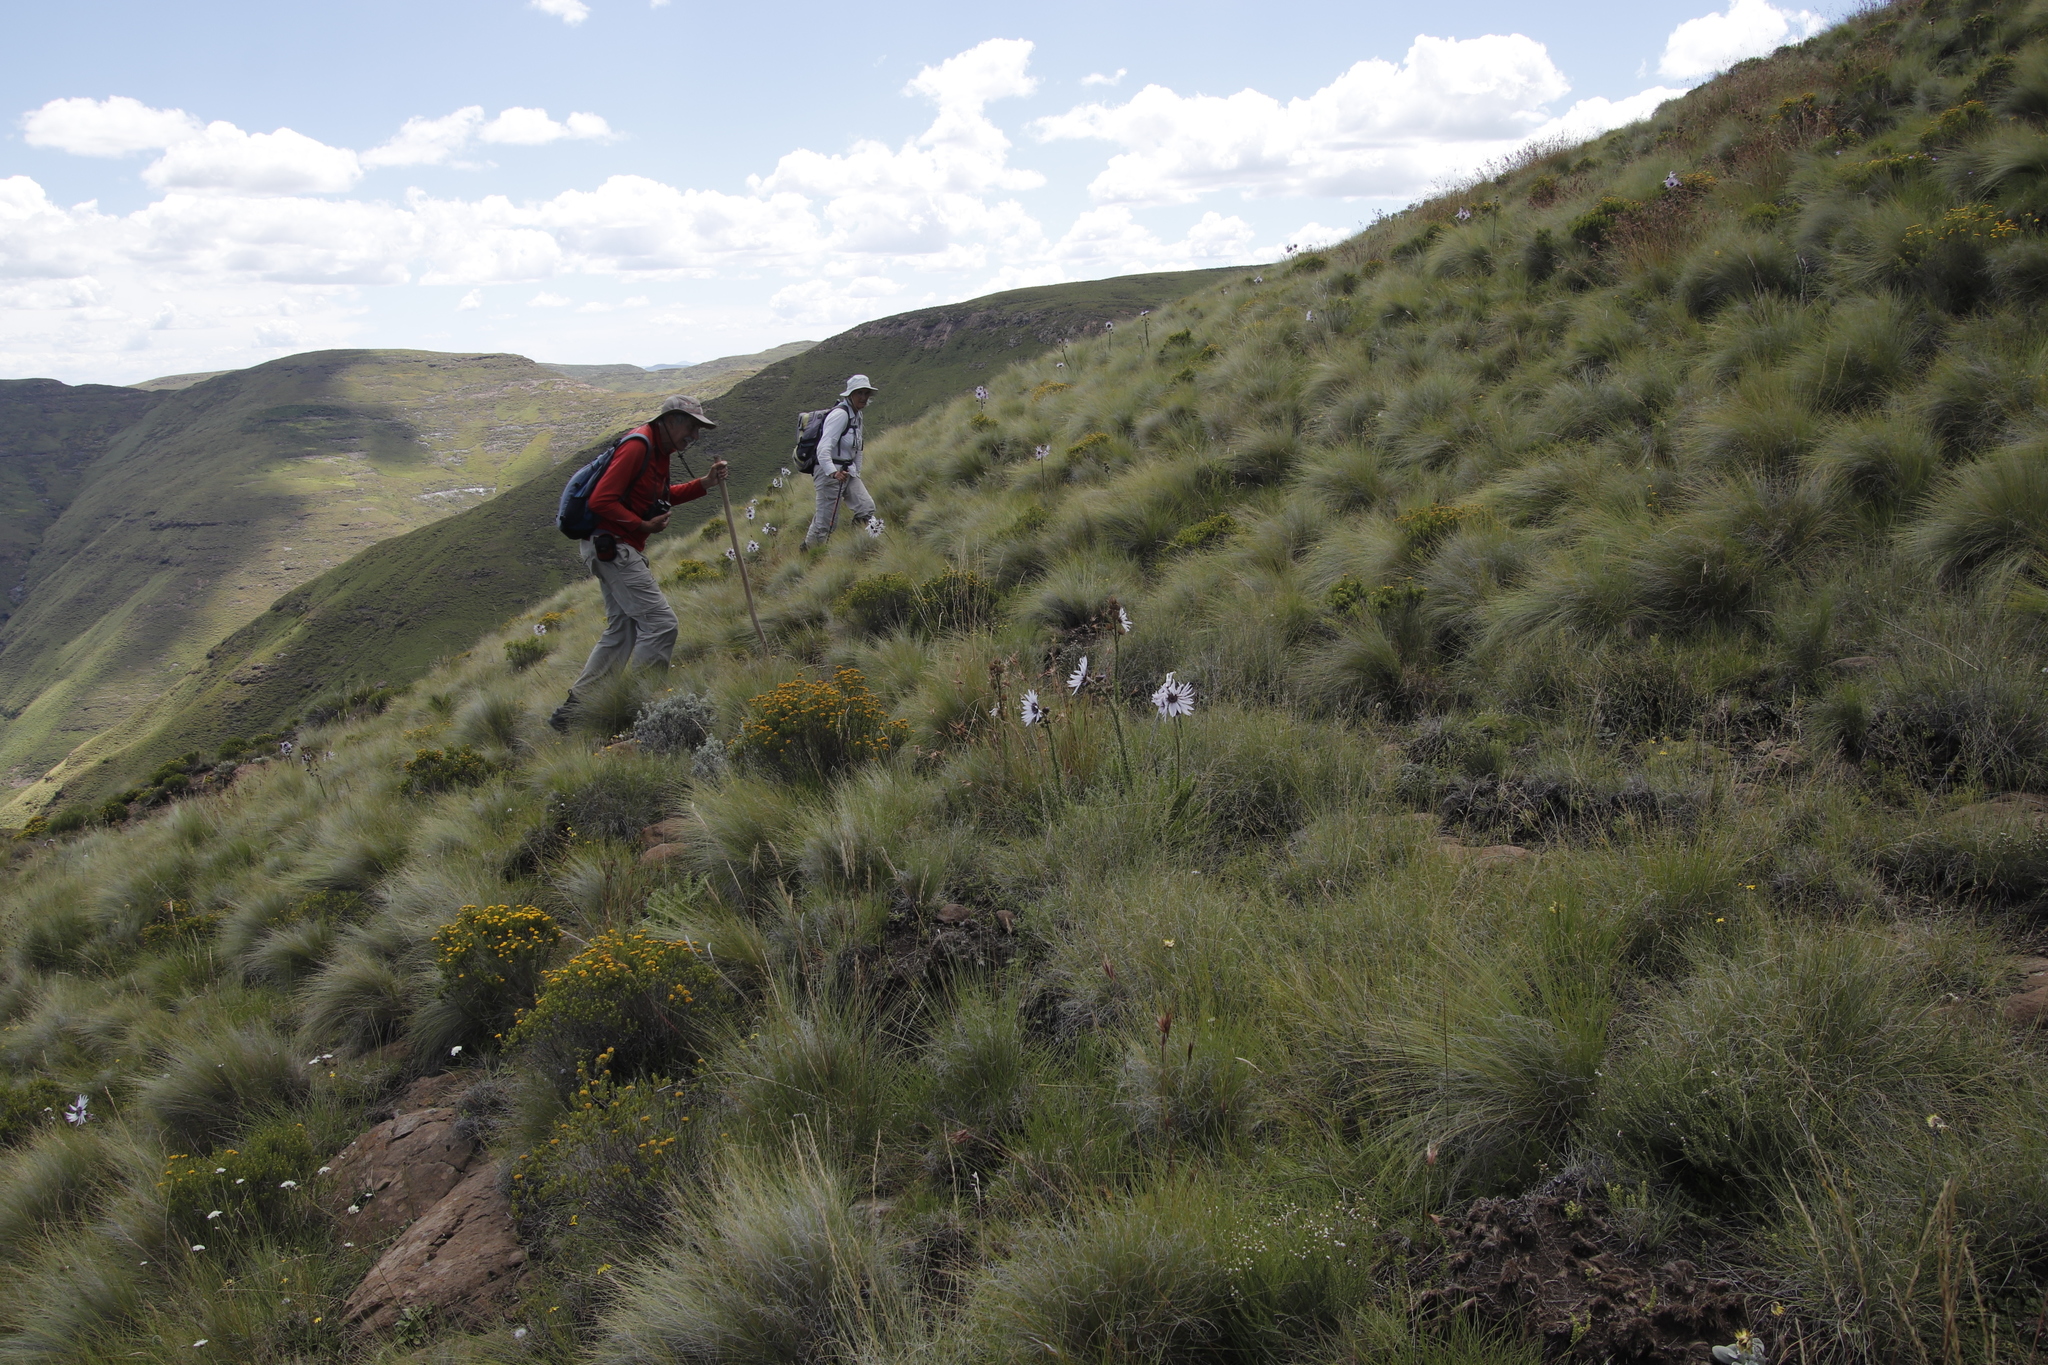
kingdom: Plantae
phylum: Tracheophyta
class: Magnoliopsida
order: Asterales
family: Asteraceae
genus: Berkheya
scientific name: Berkheya purpurea
